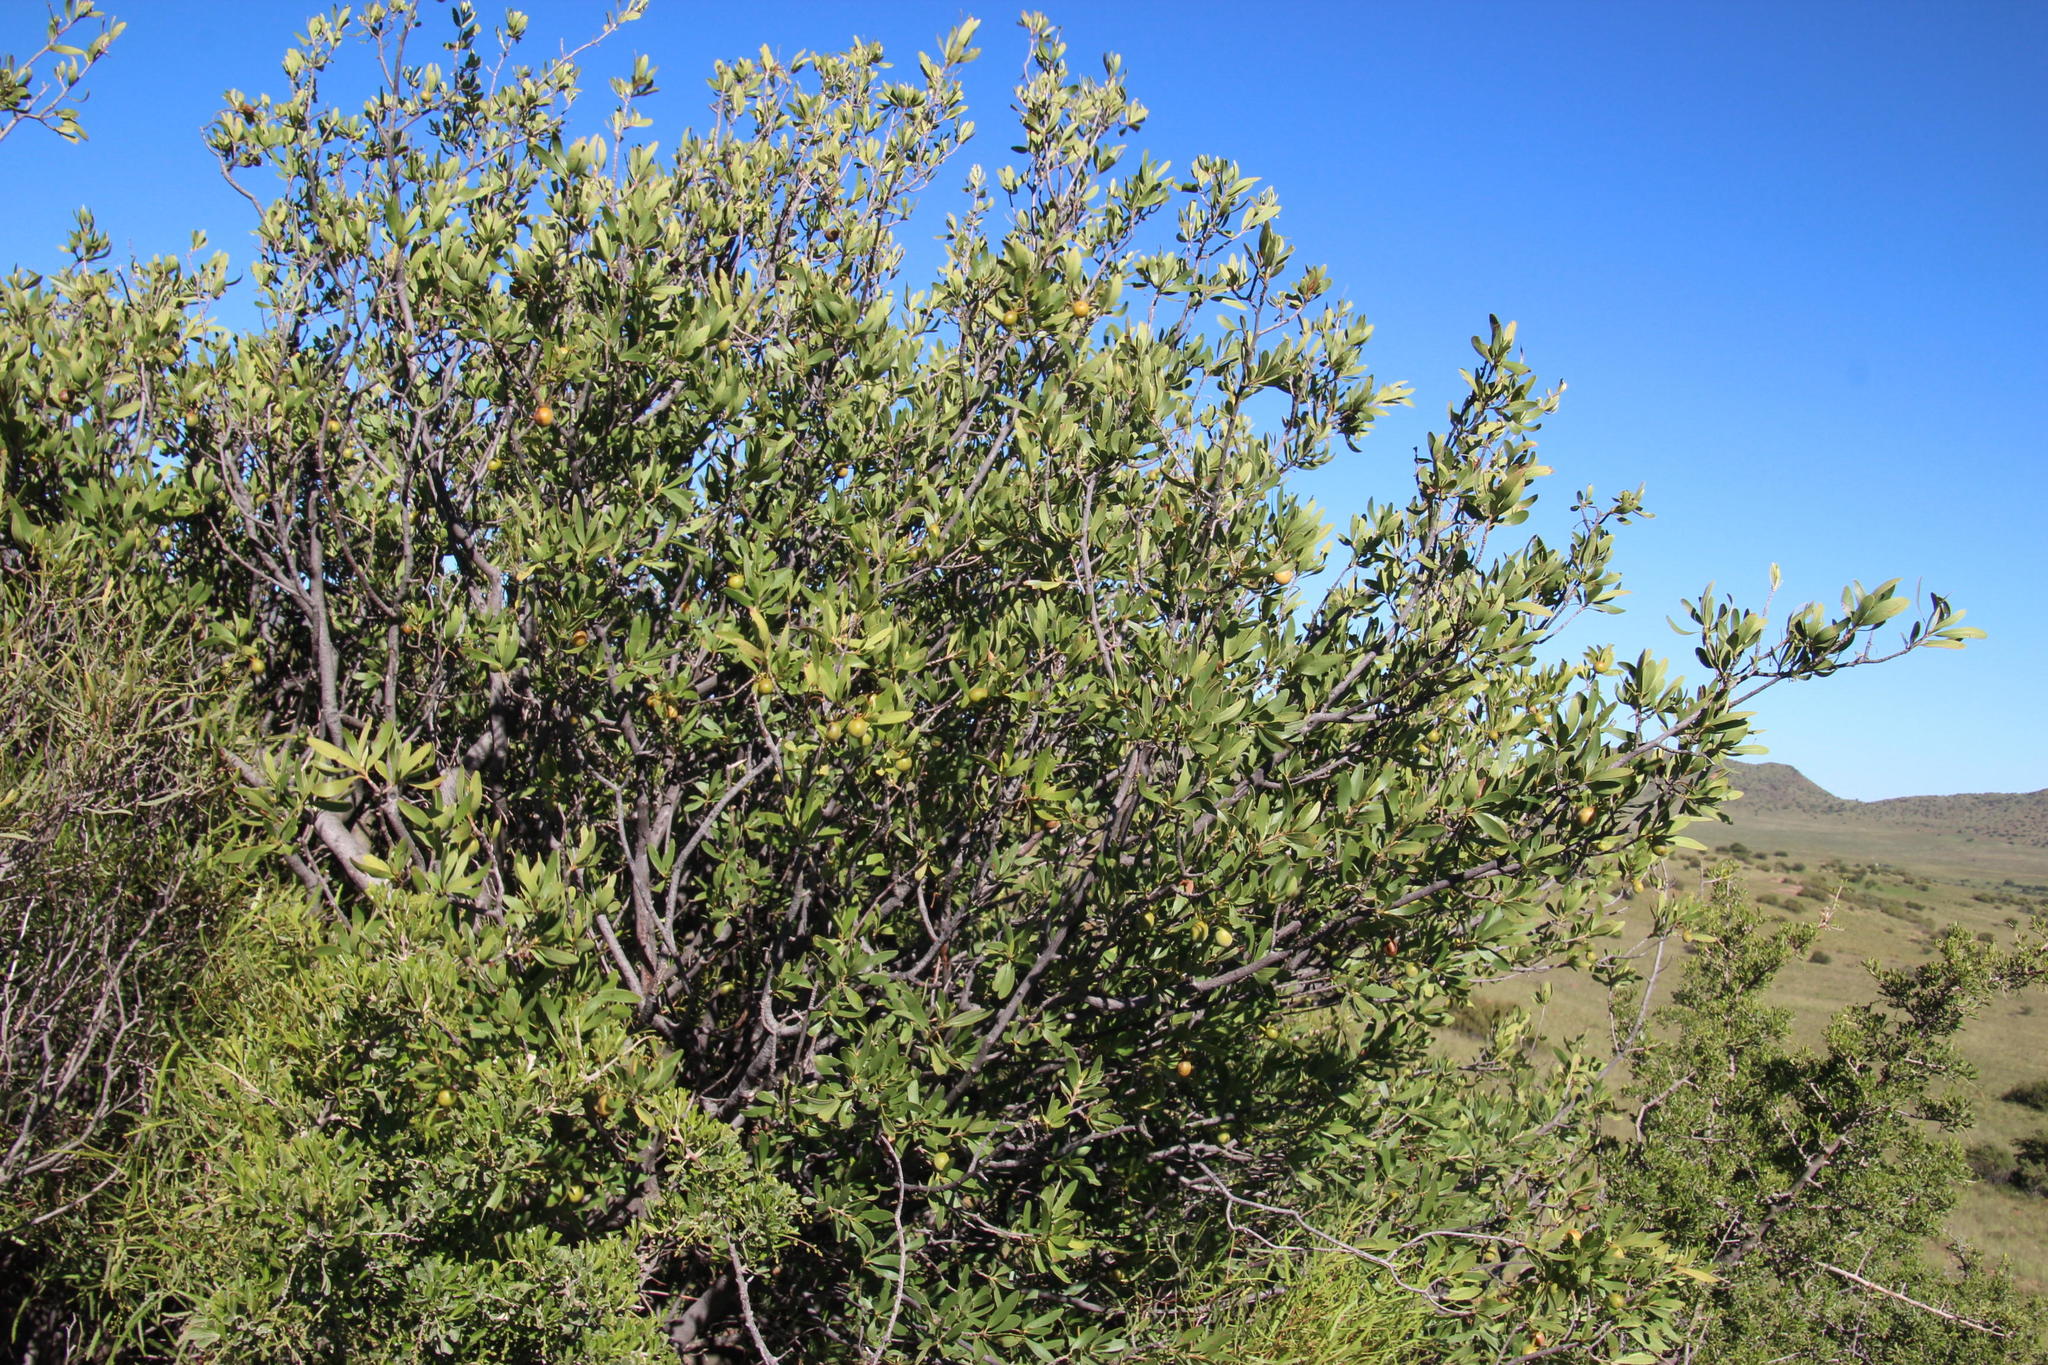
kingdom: Plantae
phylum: Tracheophyta
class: Magnoliopsida
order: Ericales
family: Ebenaceae
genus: Diospyros
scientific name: Diospyros lycioides
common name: Red star apple
